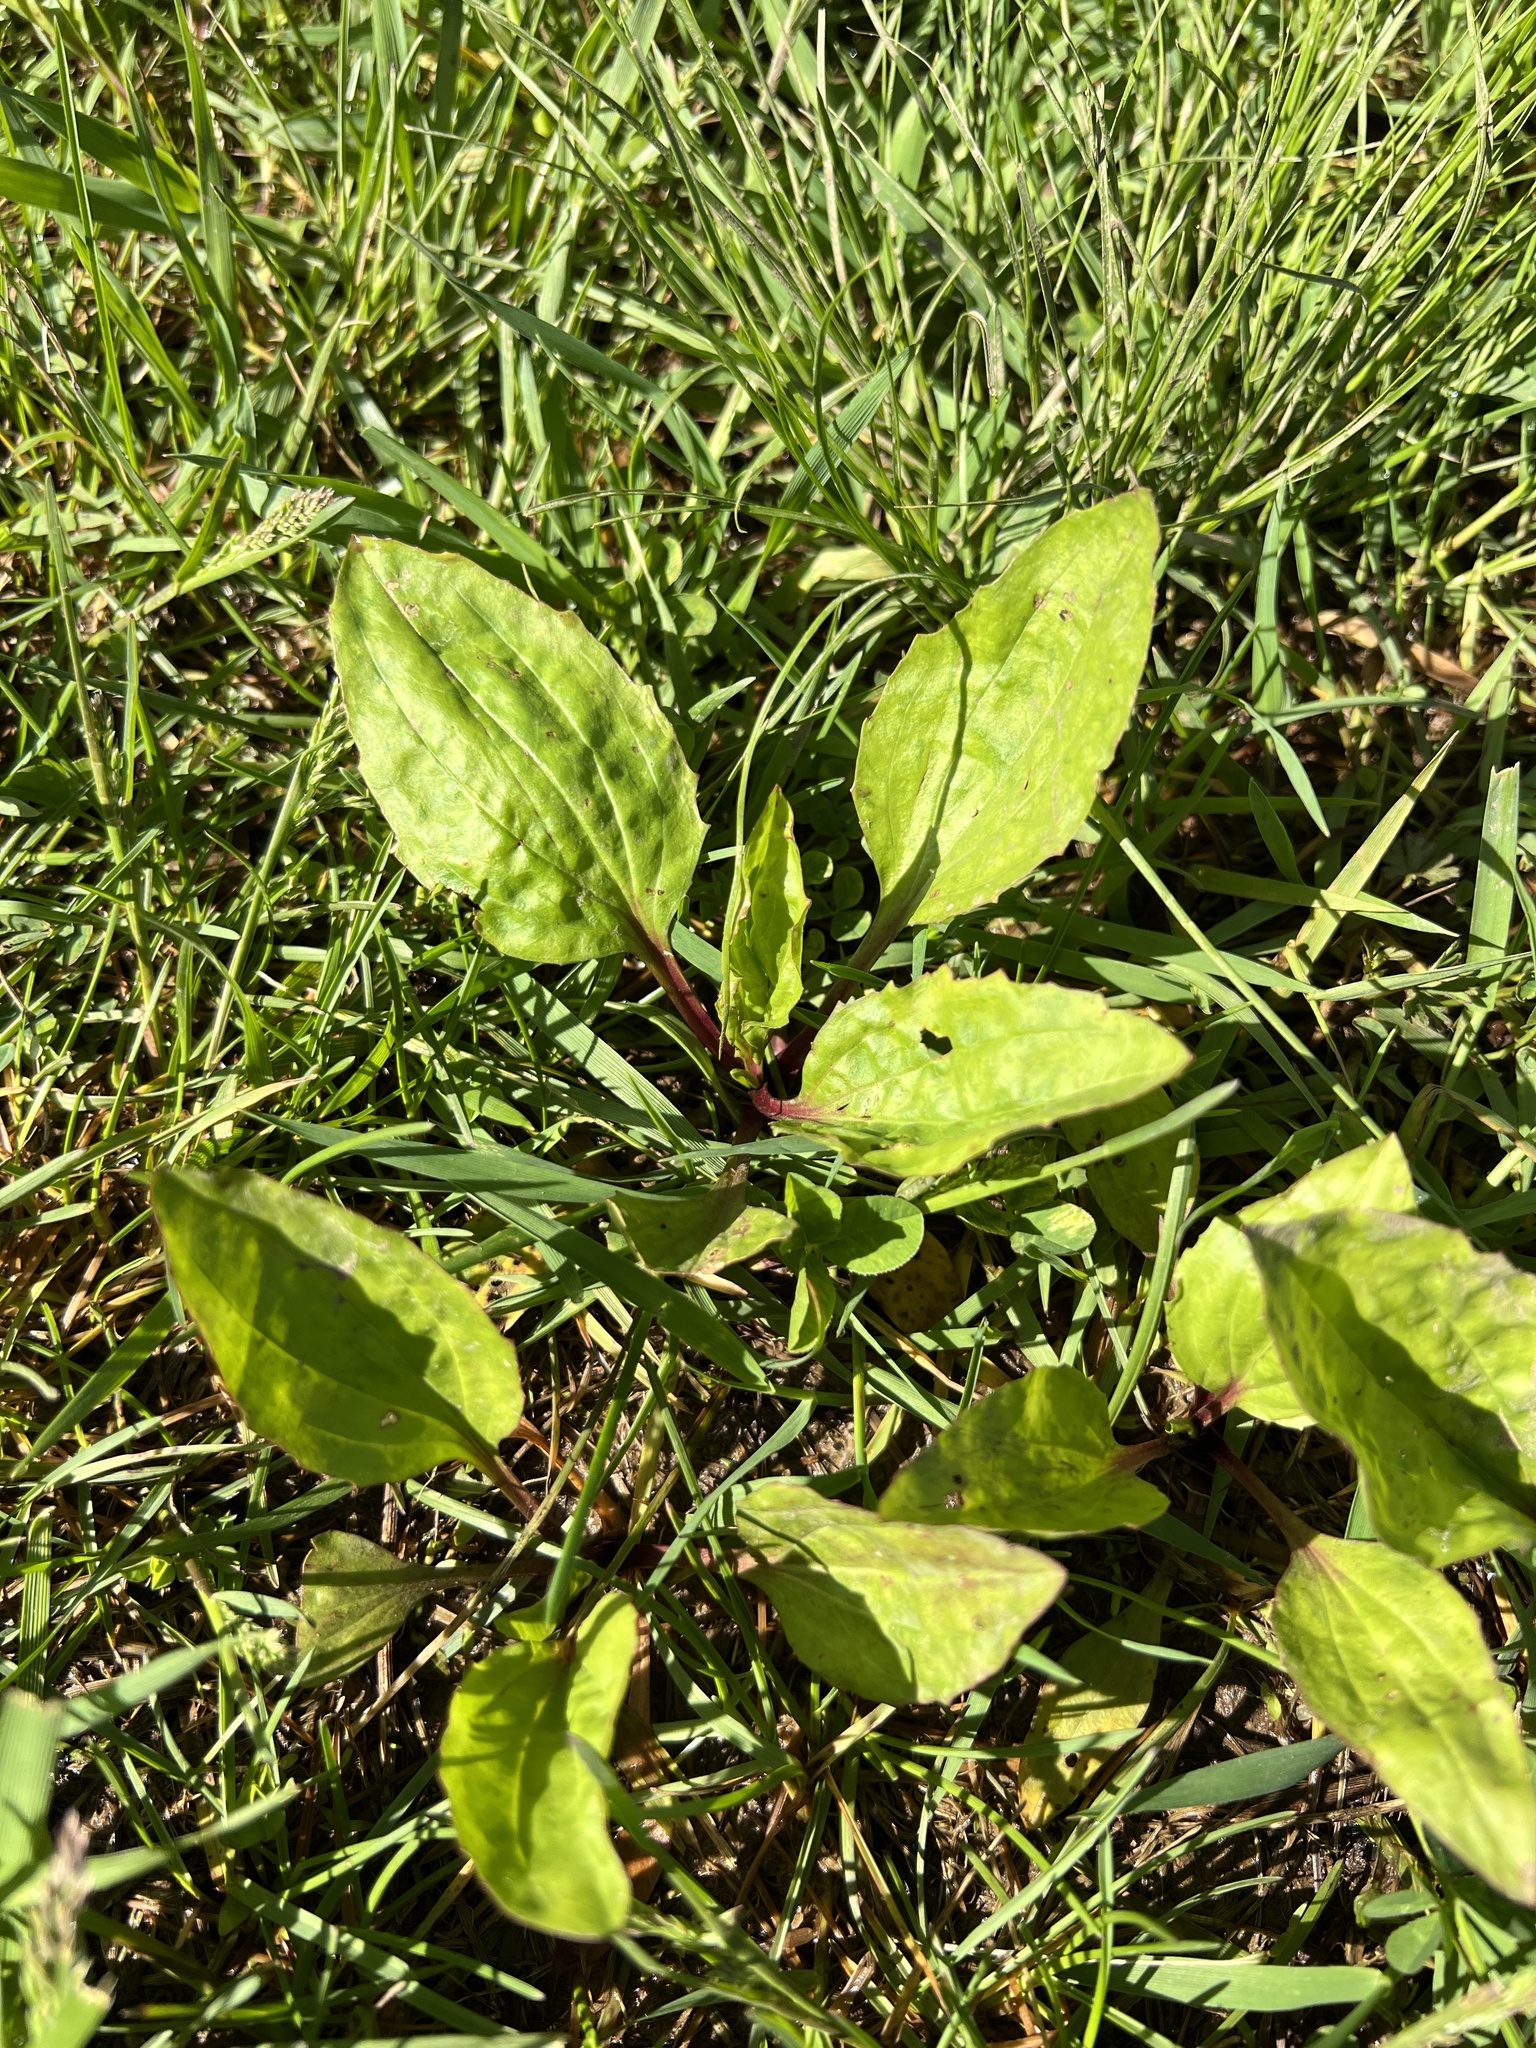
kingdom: Plantae
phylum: Tracheophyta
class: Magnoliopsida
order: Lamiales
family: Plantaginaceae
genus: Plantago
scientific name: Plantago rugelii
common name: American plantain
